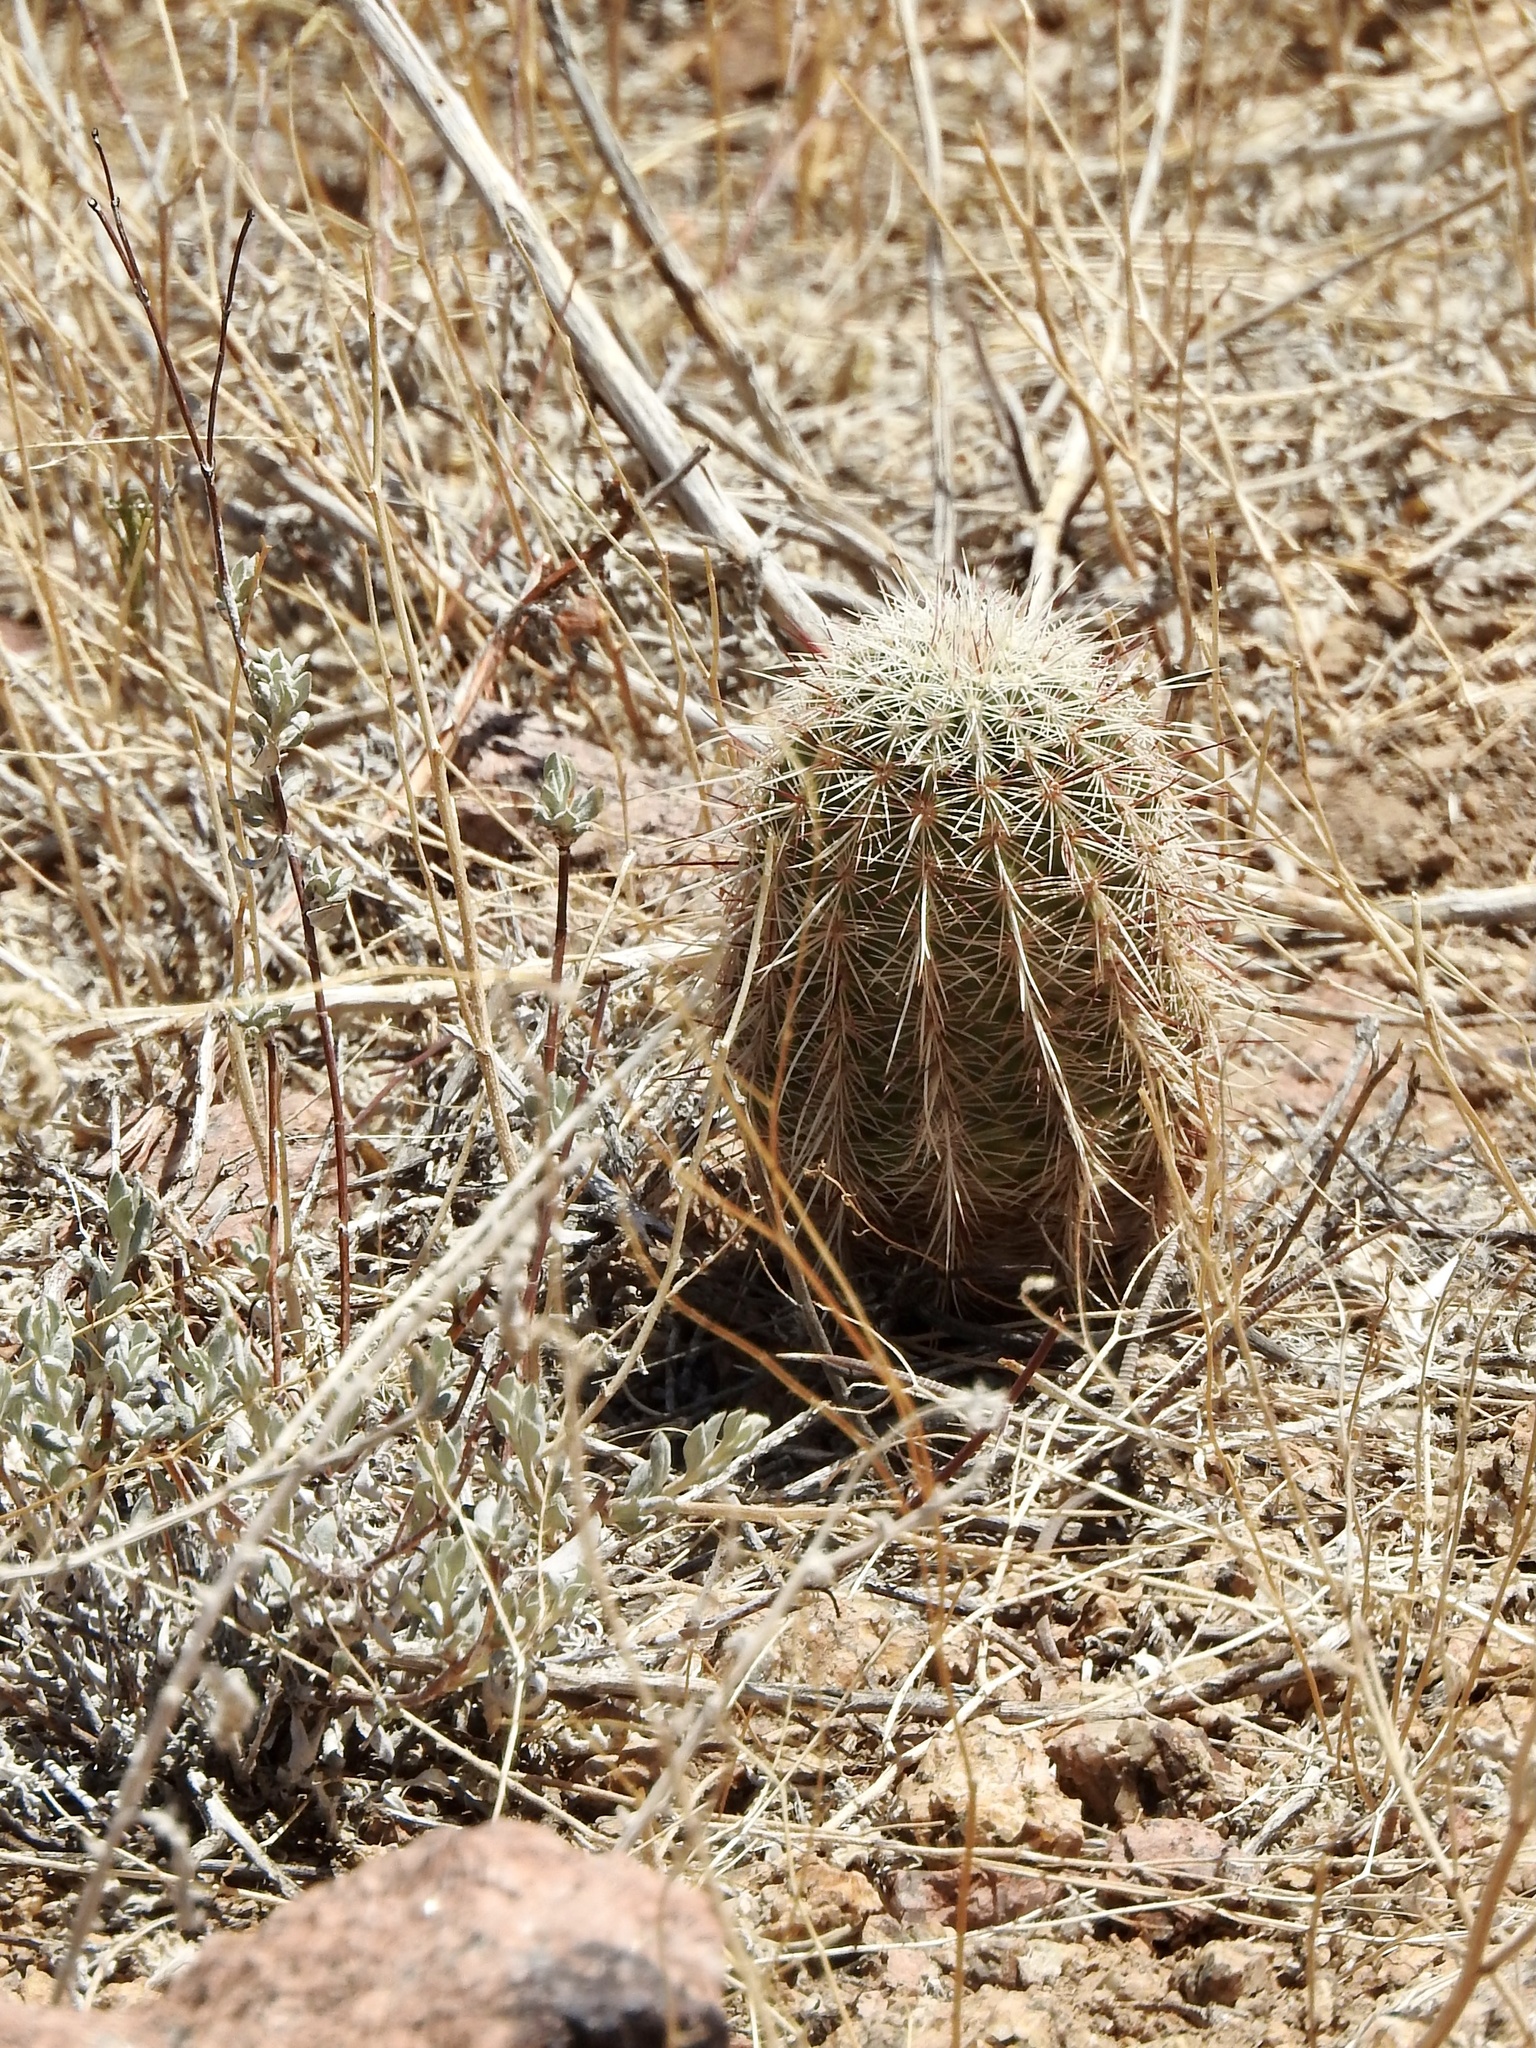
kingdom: Plantae
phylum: Tracheophyta
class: Magnoliopsida
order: Caryophyllales
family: Cactaceae
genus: Echinocereus
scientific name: Echinocereus viridiflorus
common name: Nylon hedgehog cactus
